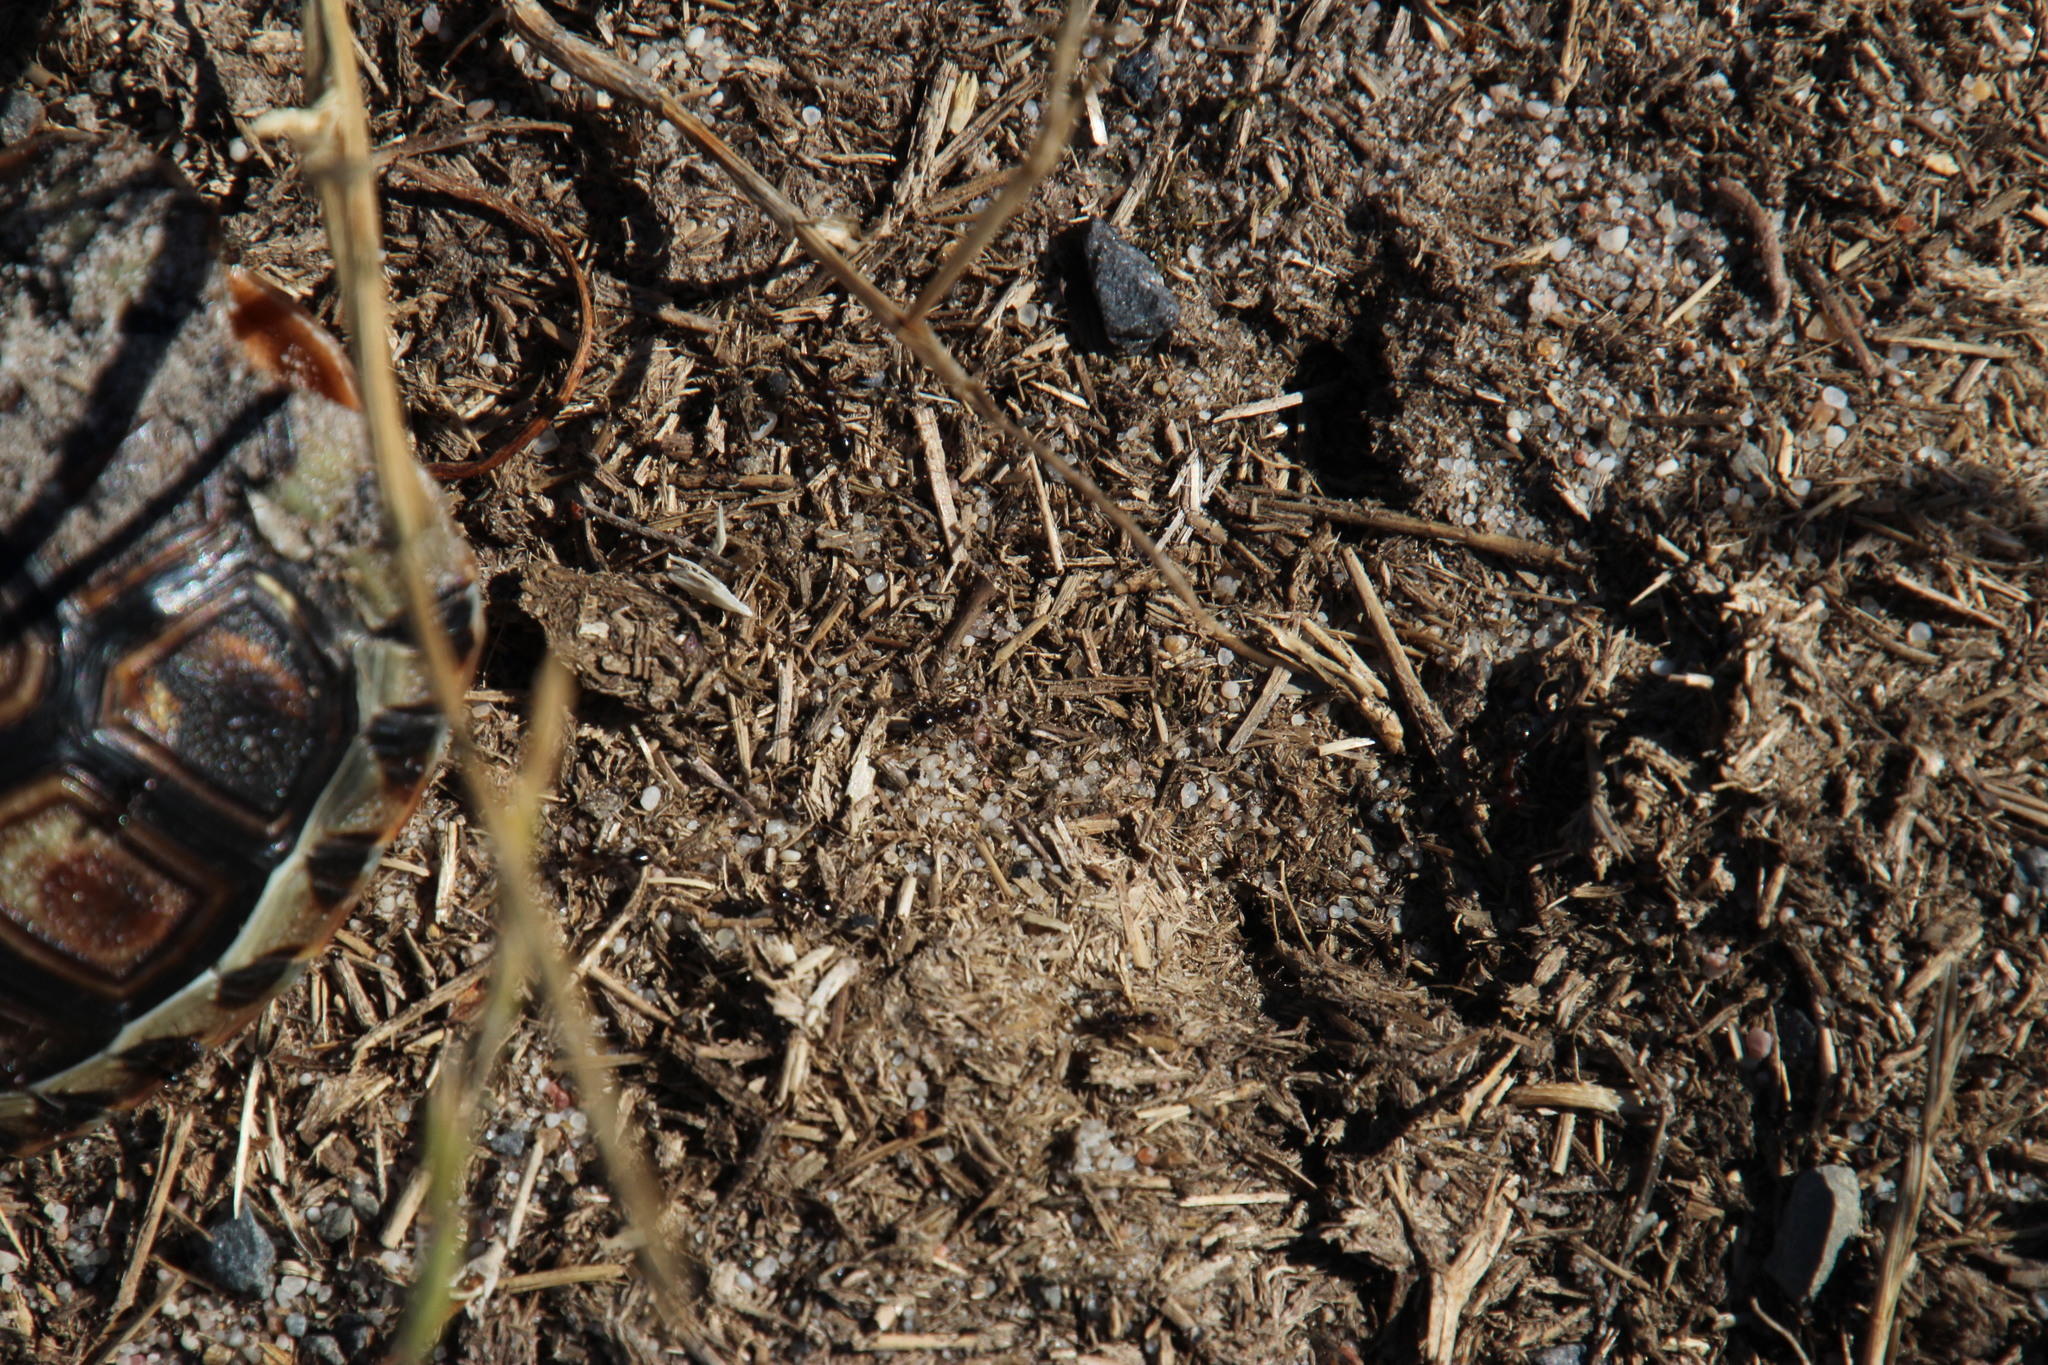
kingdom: Animalia
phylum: Arthropoda
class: Insecta
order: Hymenoptera
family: Formicidae
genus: Anoplolepis
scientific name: Anoplolepis steingroeveri
